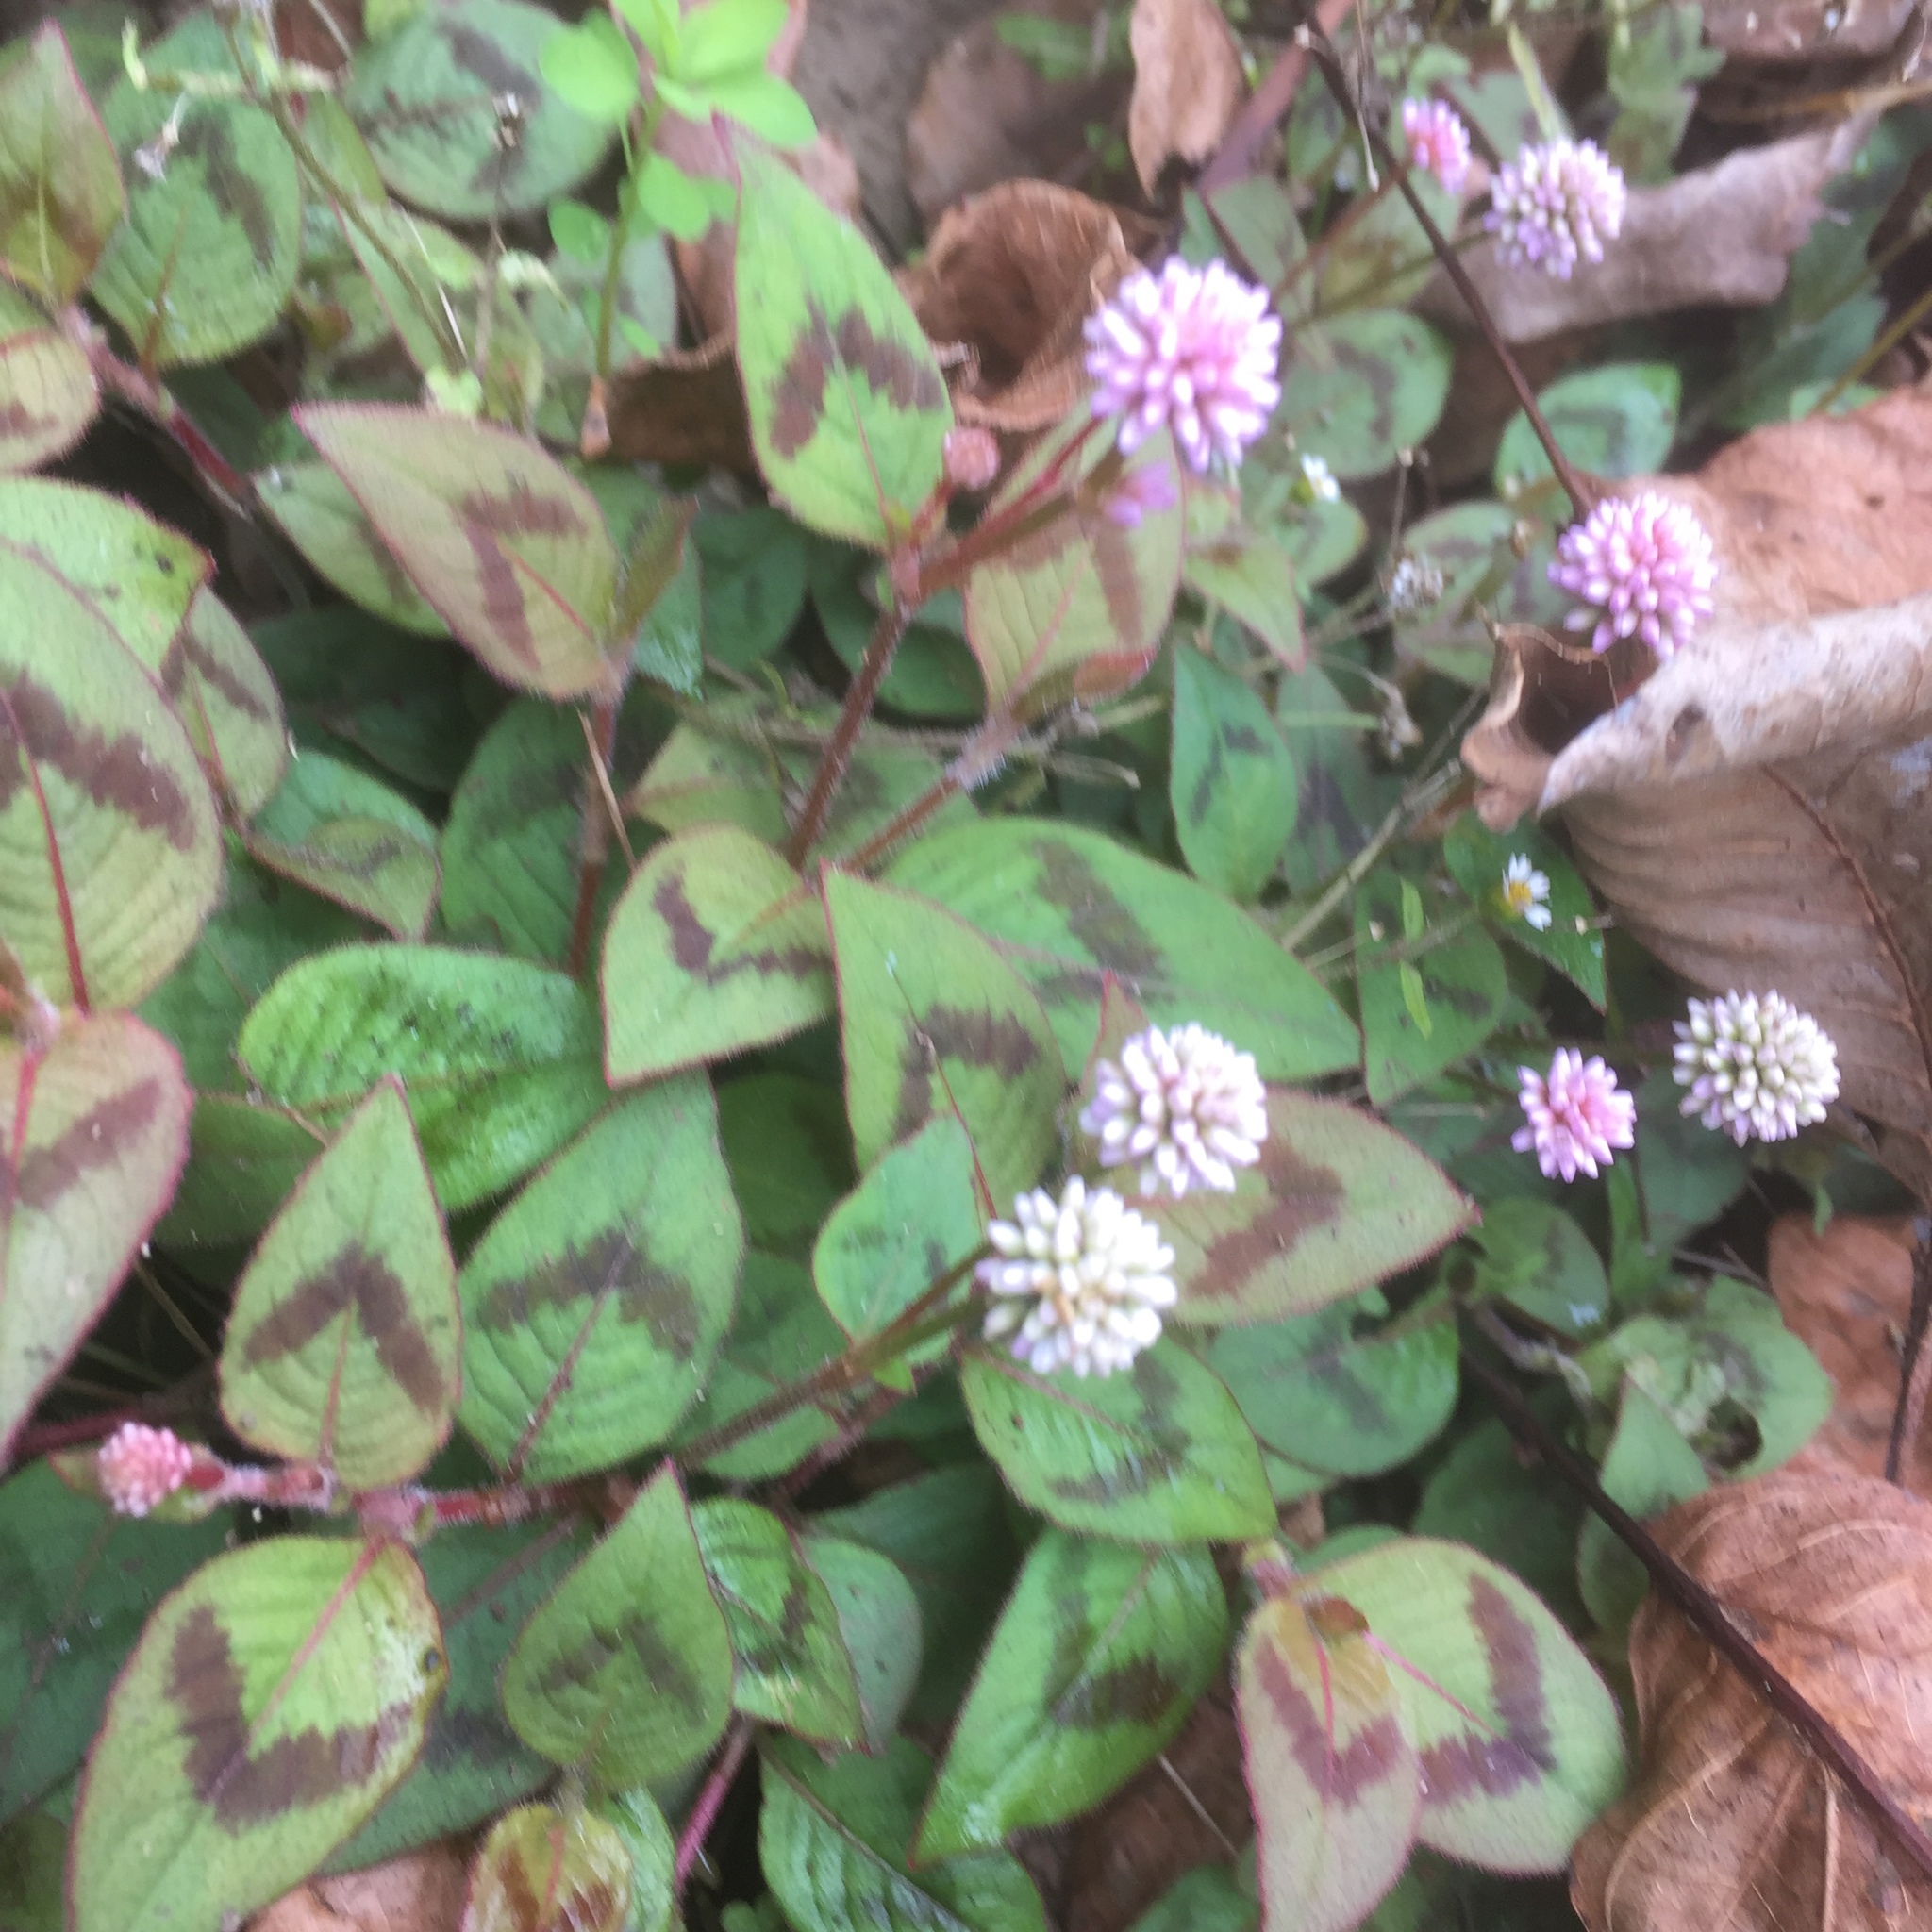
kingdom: Plantae
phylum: Tracheophyta
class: Magnoliopsida
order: Caryophyllales
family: Polygonaceae
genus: Persicaria
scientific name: Persicaria capitata
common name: Pinkhead smartweed
